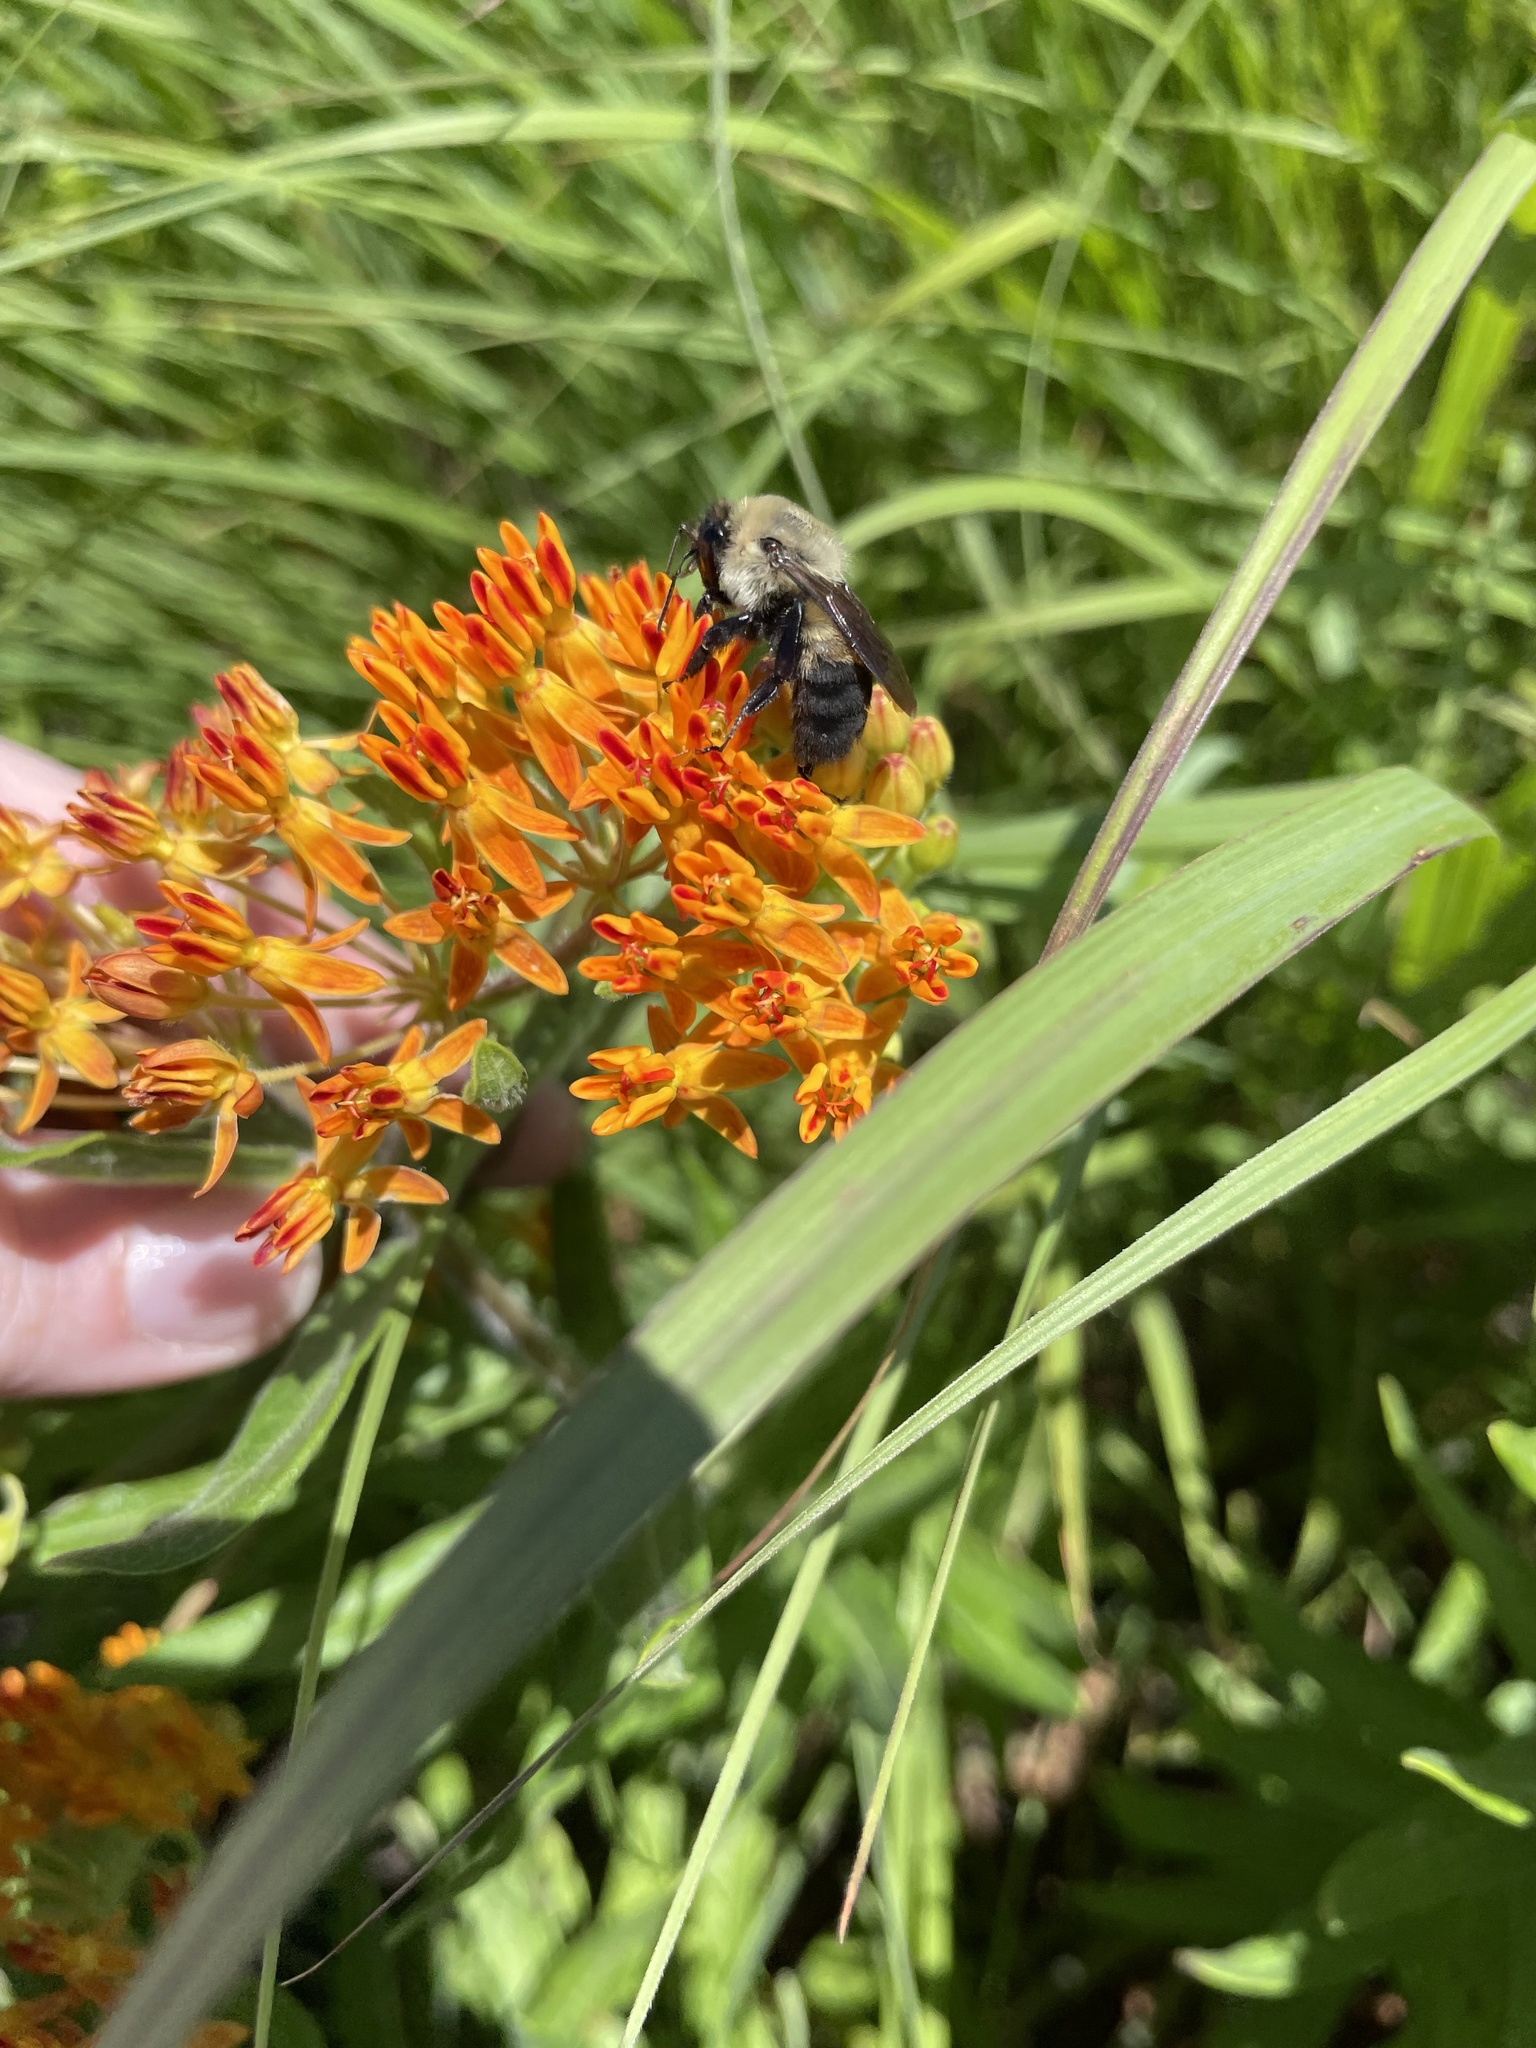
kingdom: Animalia
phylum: Arthropoda
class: Insecta
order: Hymenoptera
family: Apidae
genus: Bombus
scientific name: Bombus griseocollis
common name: Brown-belted bumble bee
